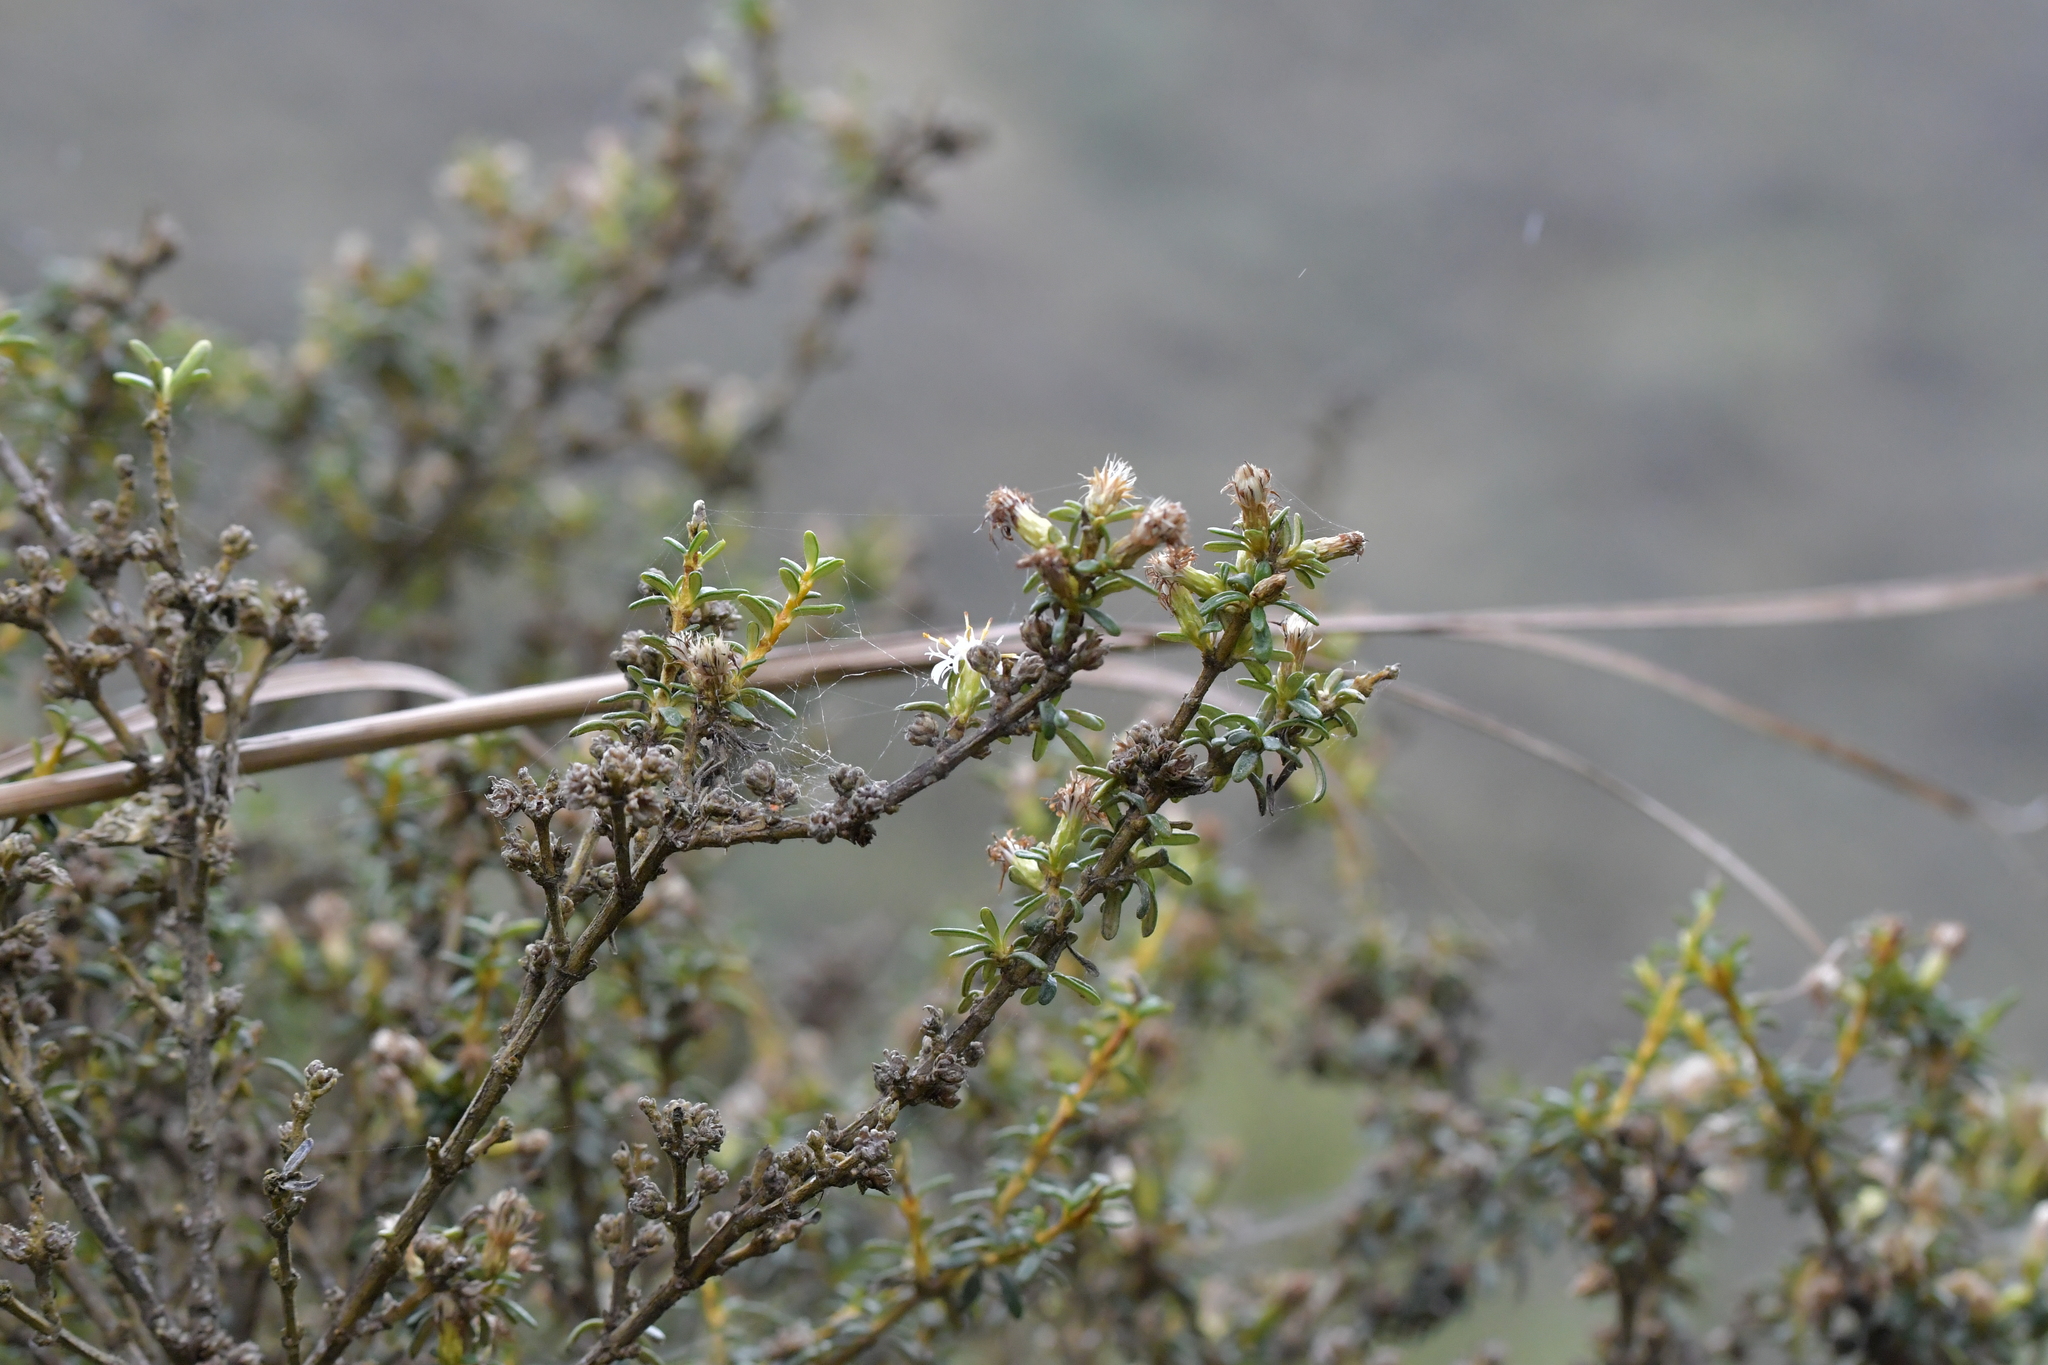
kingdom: Plantae
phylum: Tracheophyta
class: Magnoliopsida
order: Asterales
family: Asteraceae
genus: Olearia
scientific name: Olearia solandri
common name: Coastal daisybush
